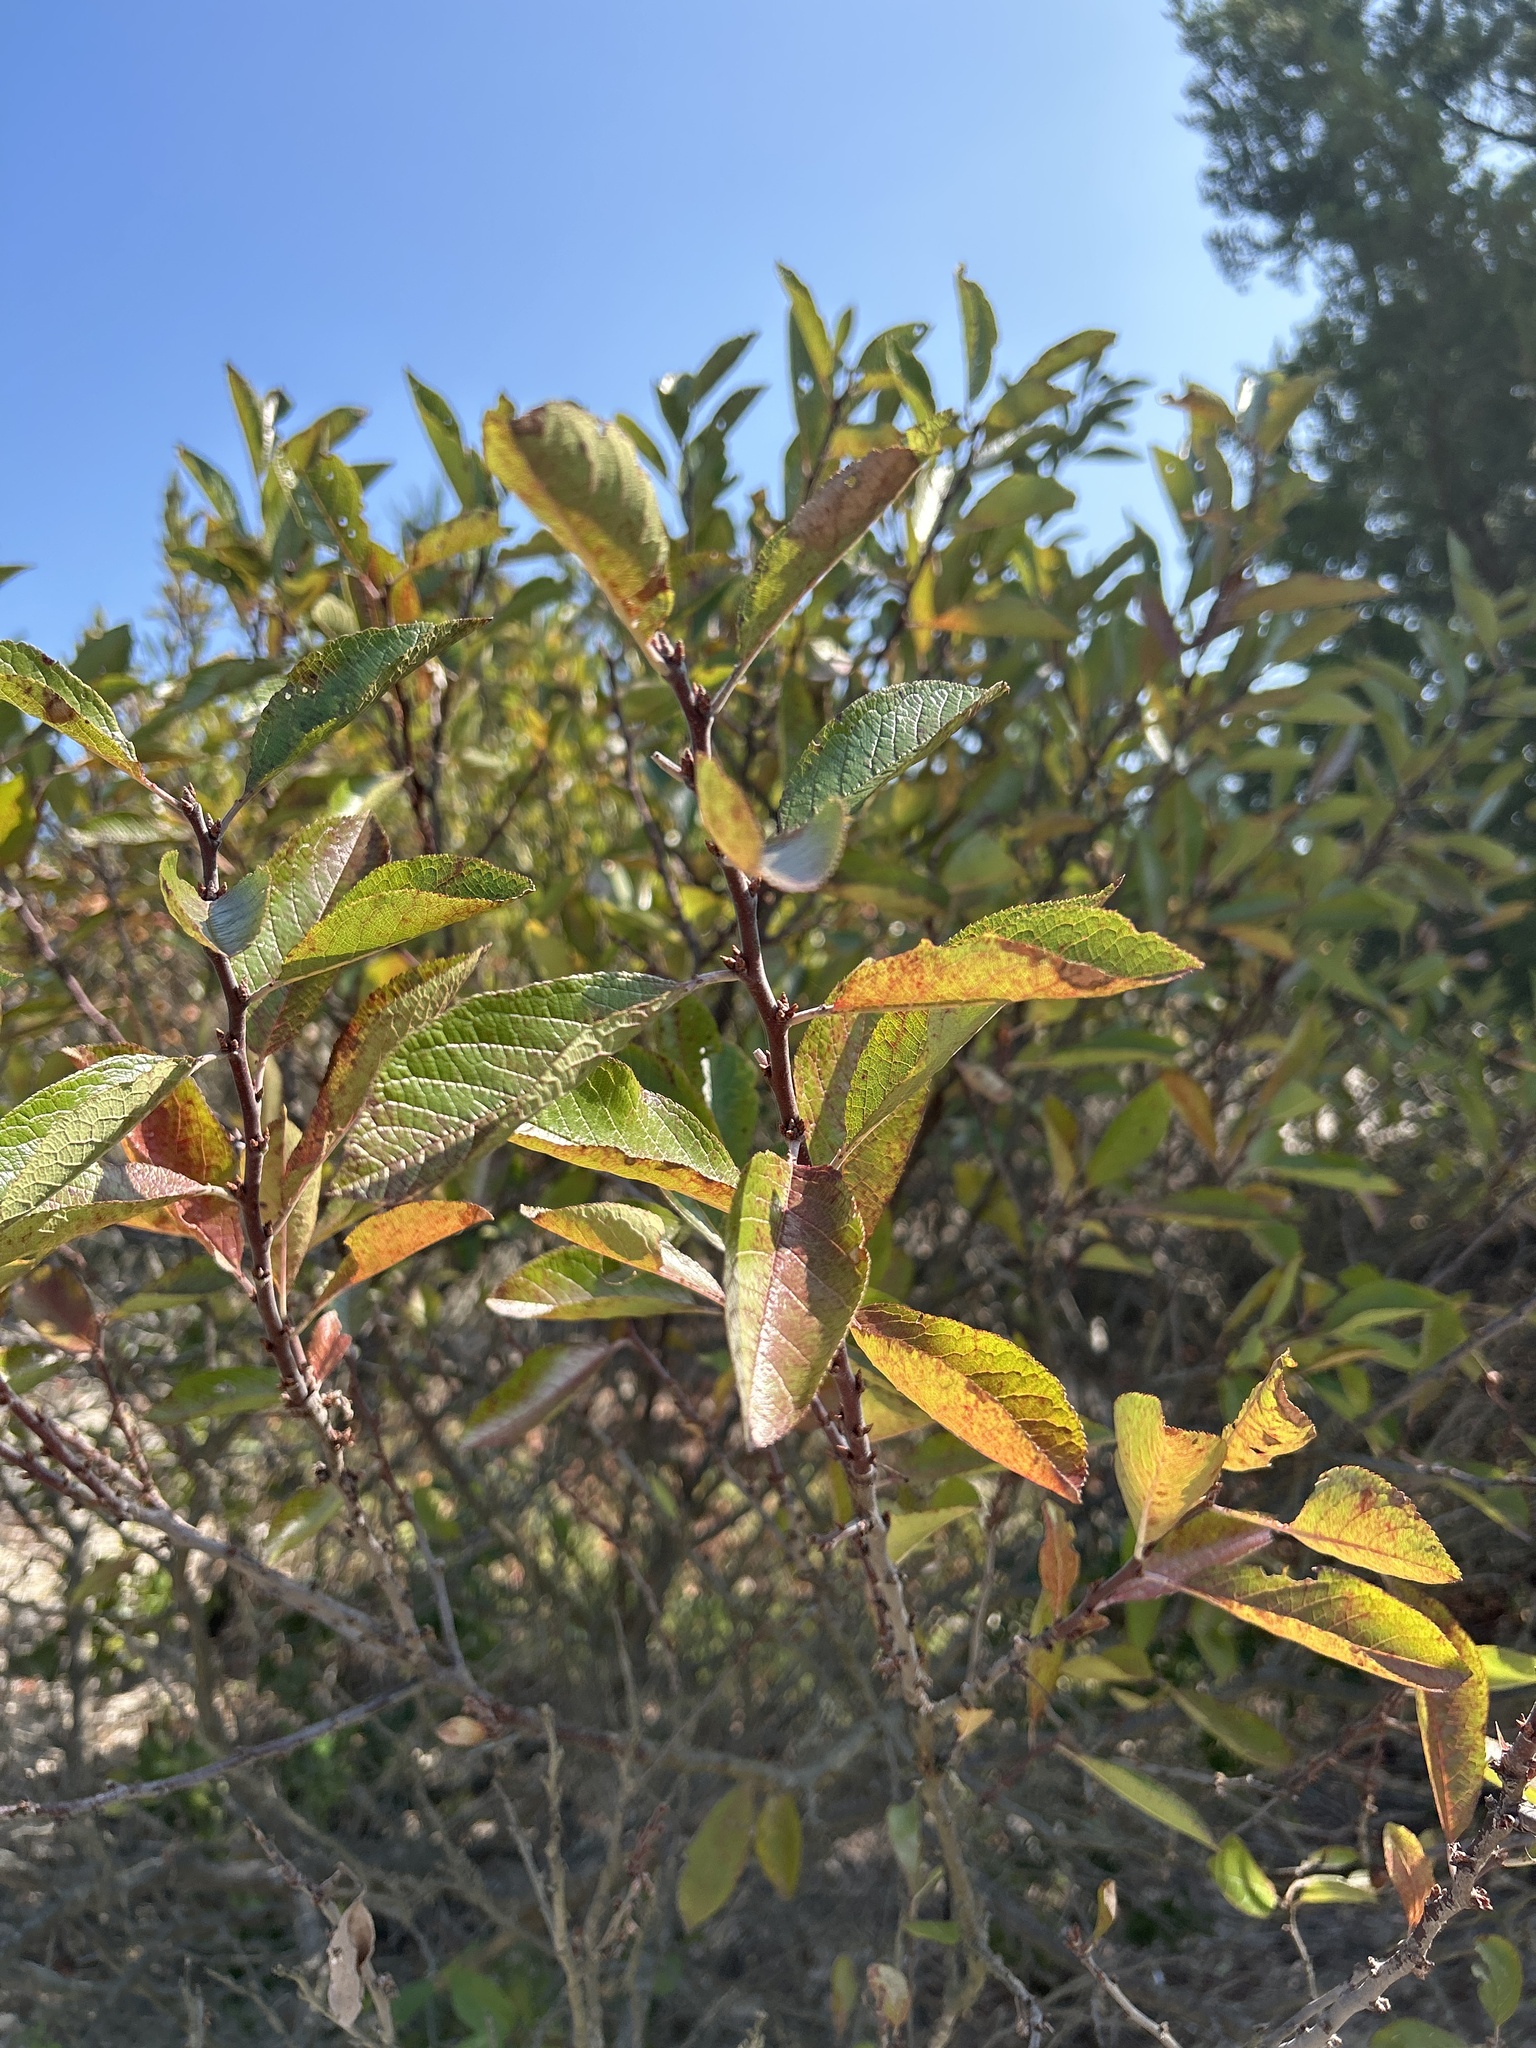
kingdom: Plantae
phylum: Tracheophyta
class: Magnoliopsida
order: Rosales
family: Rosaceae
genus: Prunus
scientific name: Prunus maritima
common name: Beach plum
